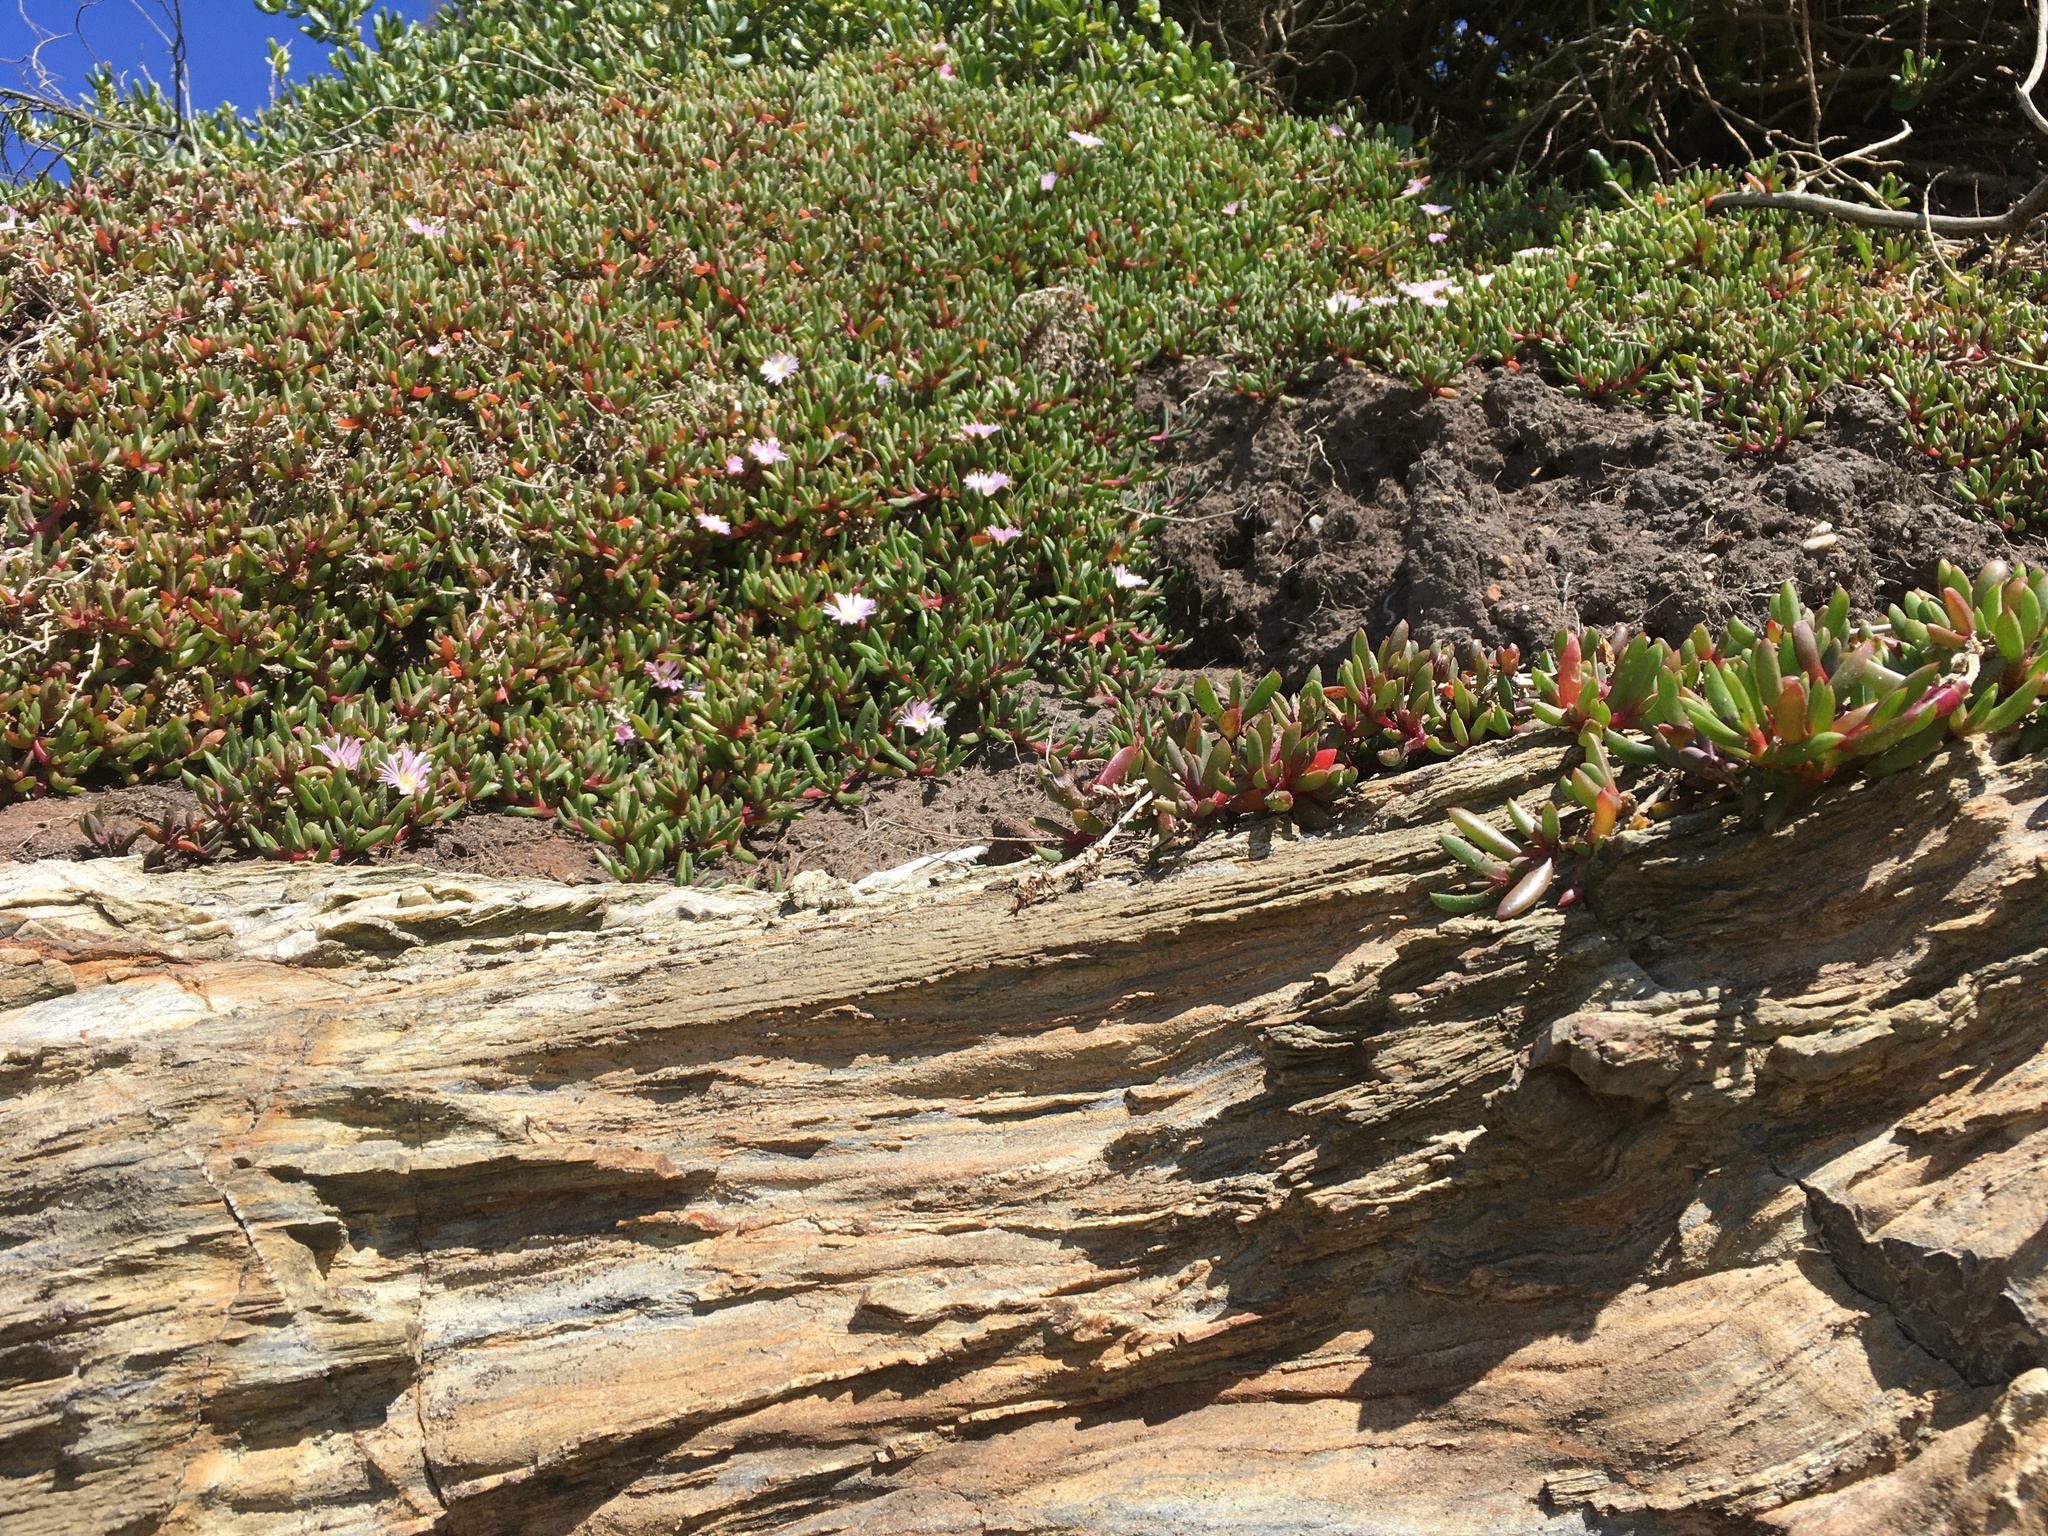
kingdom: Plantae
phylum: Tracheophyta
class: Magnoliopsida
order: Caryophyllales
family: Aizoaceae
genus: Disphyma
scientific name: Disphyma australe
